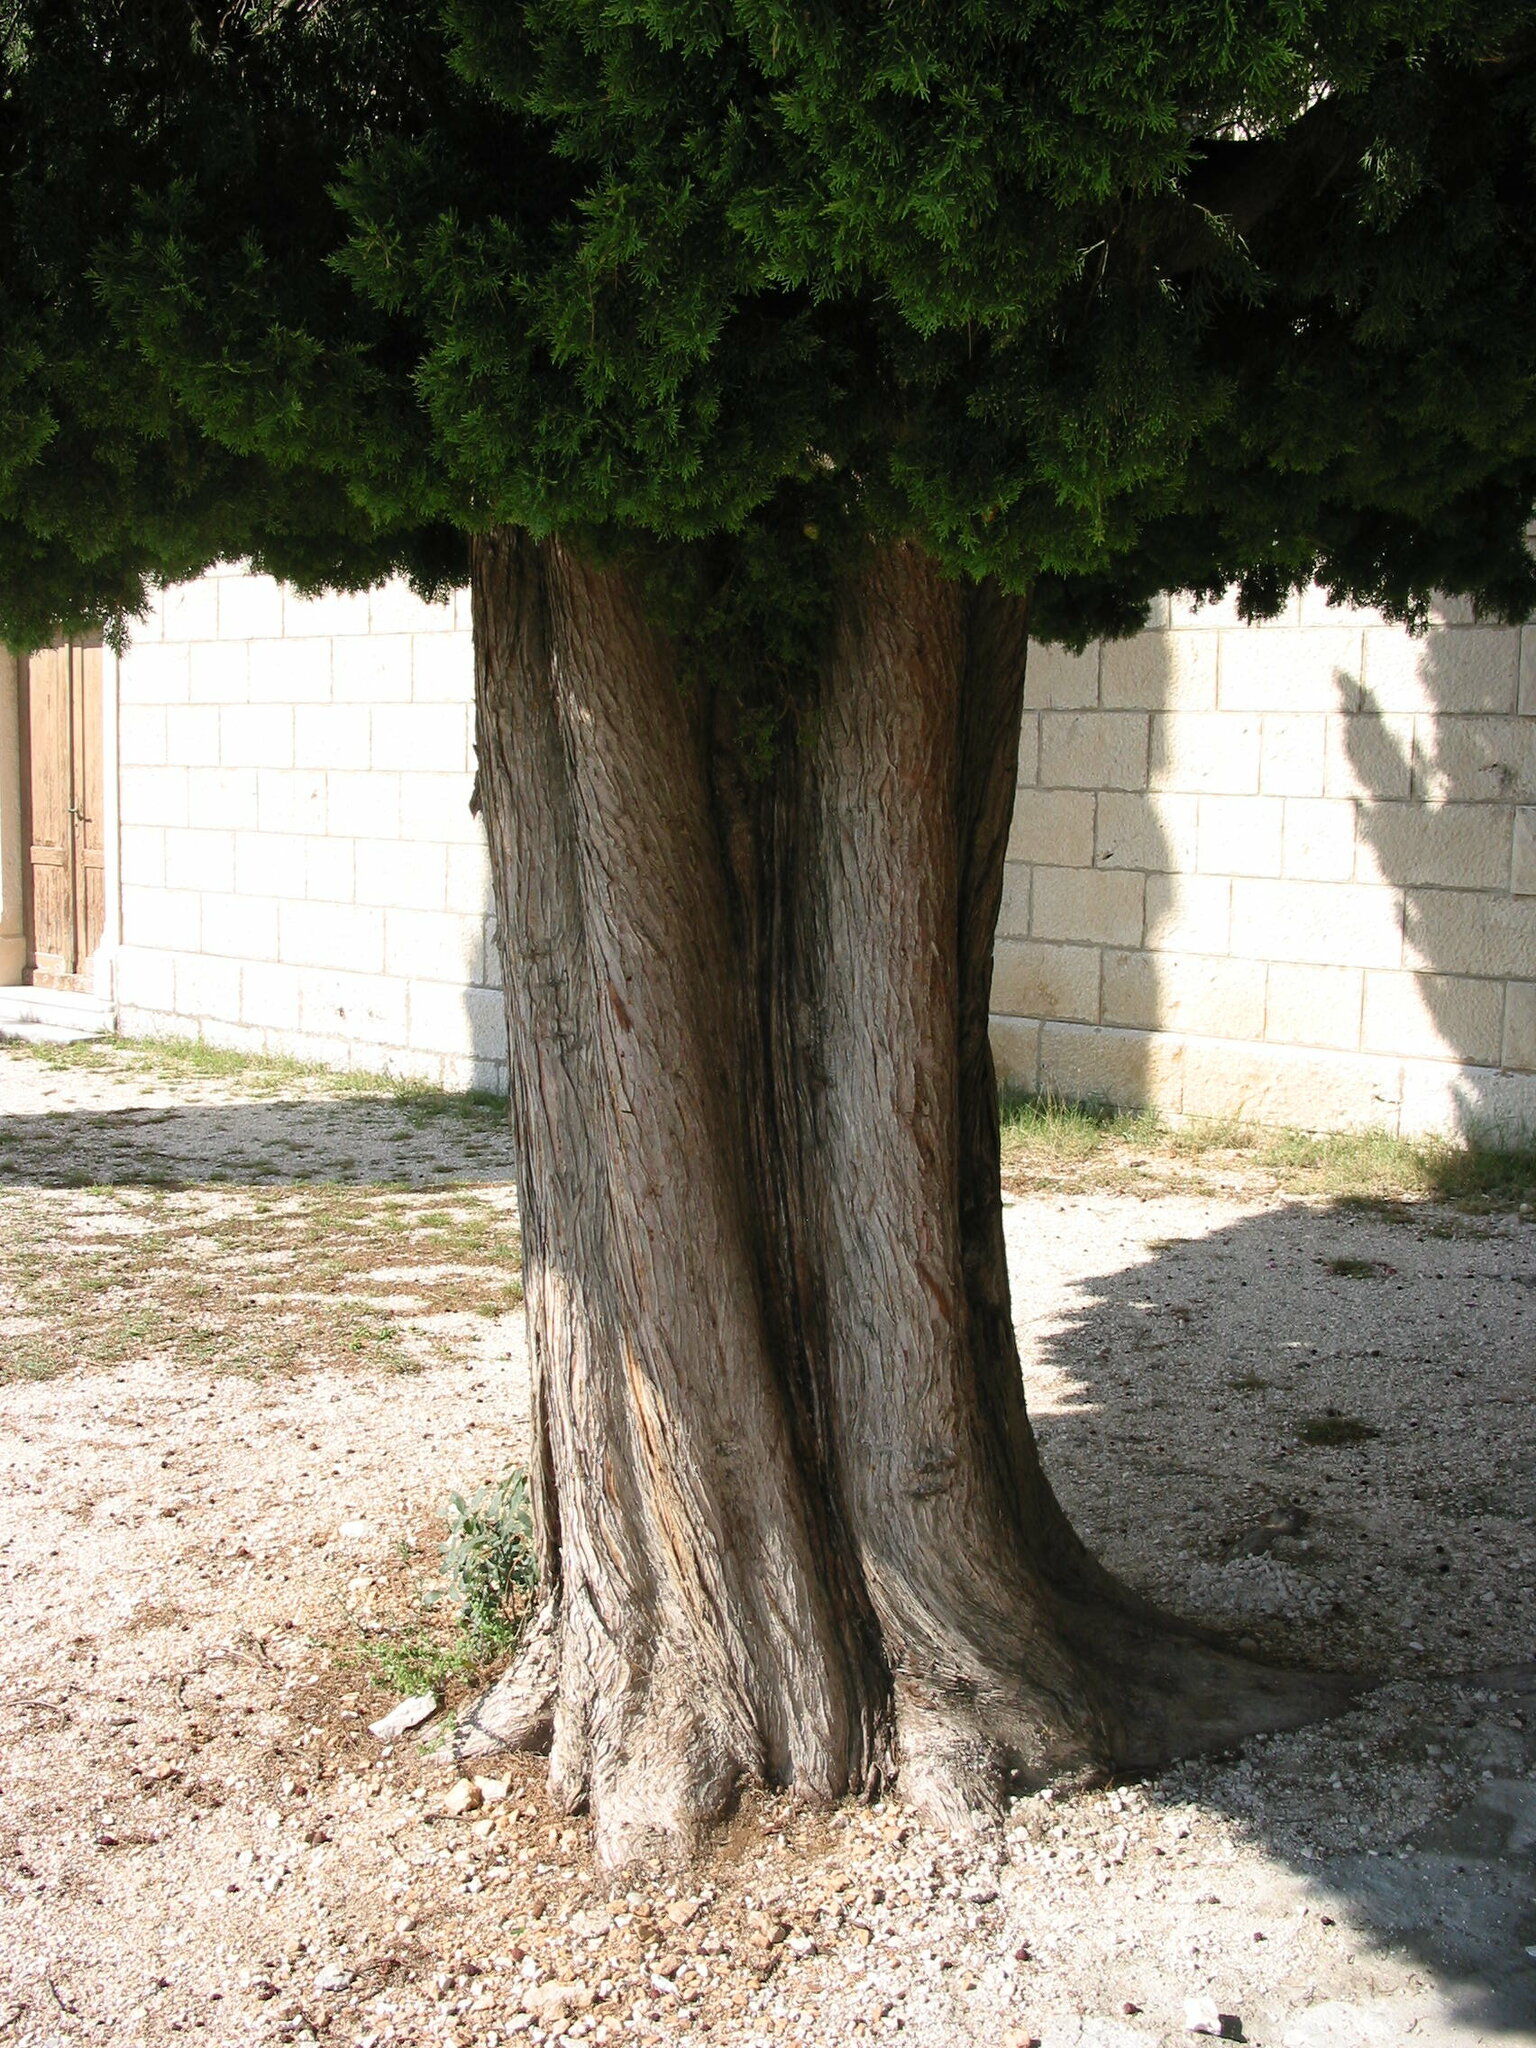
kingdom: Plantae
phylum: Tracheophyta
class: Pinopsida
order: Pinales
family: Cupressaceae
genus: Cupressus
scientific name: Cupressus sempervirens
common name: Italian cypress
